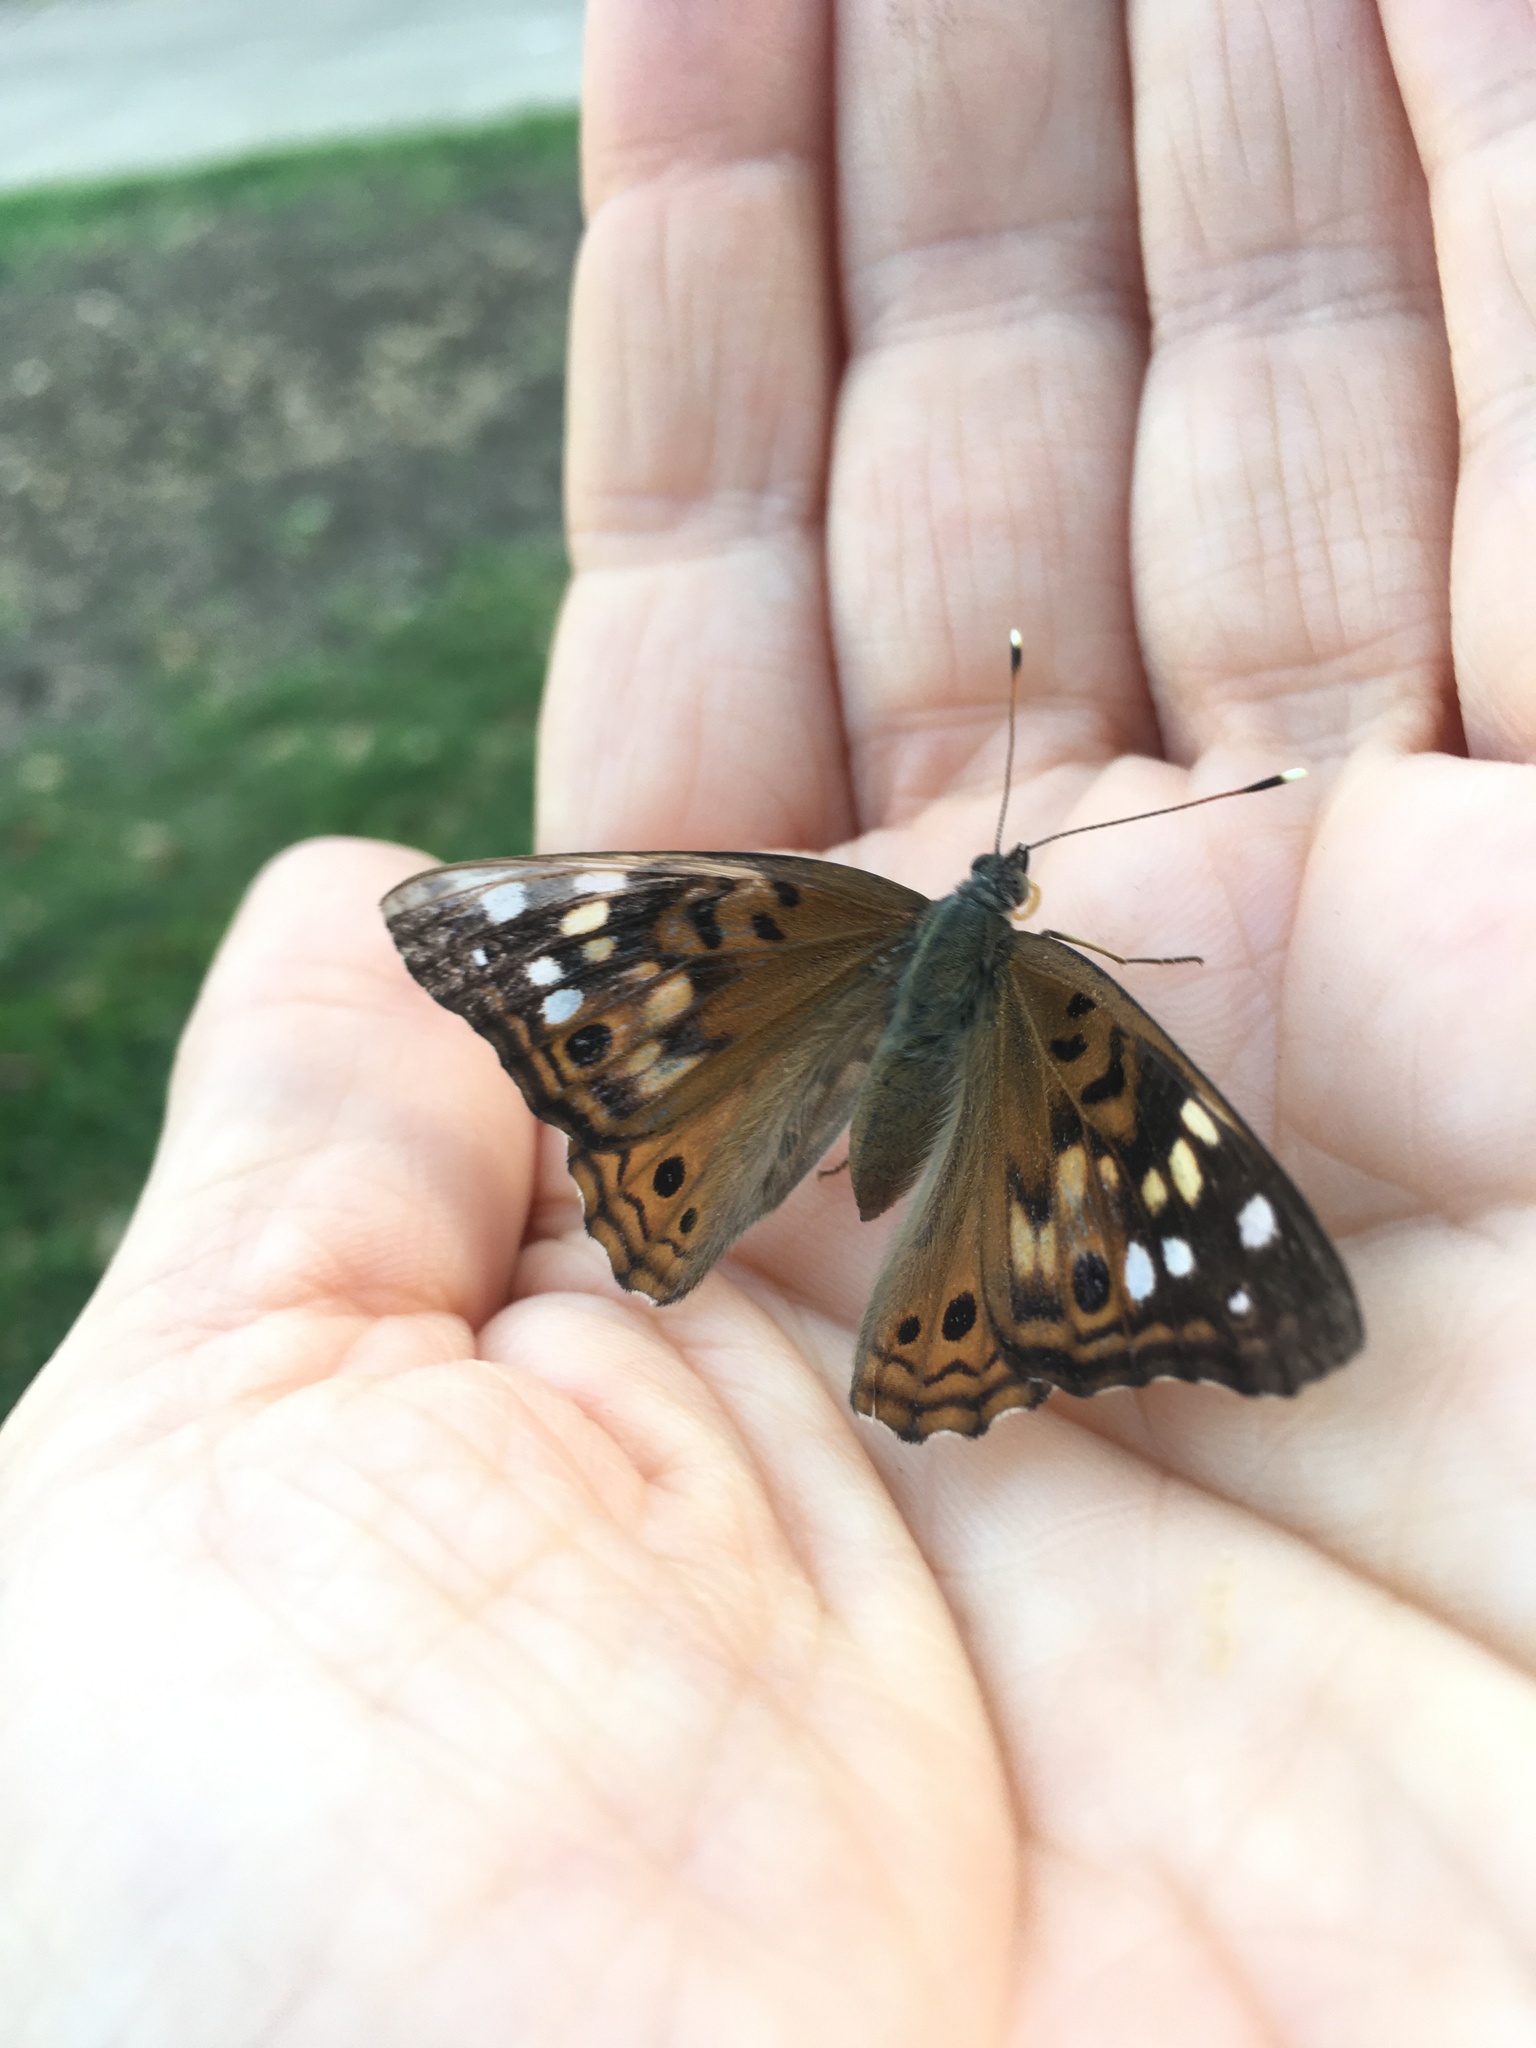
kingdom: Animalia
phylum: Arthropoda
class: Insecta
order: Lepidoptera
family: Nymphalidae
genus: Asterocampa
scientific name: Asterocampa celtis
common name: Hackberry emperor
